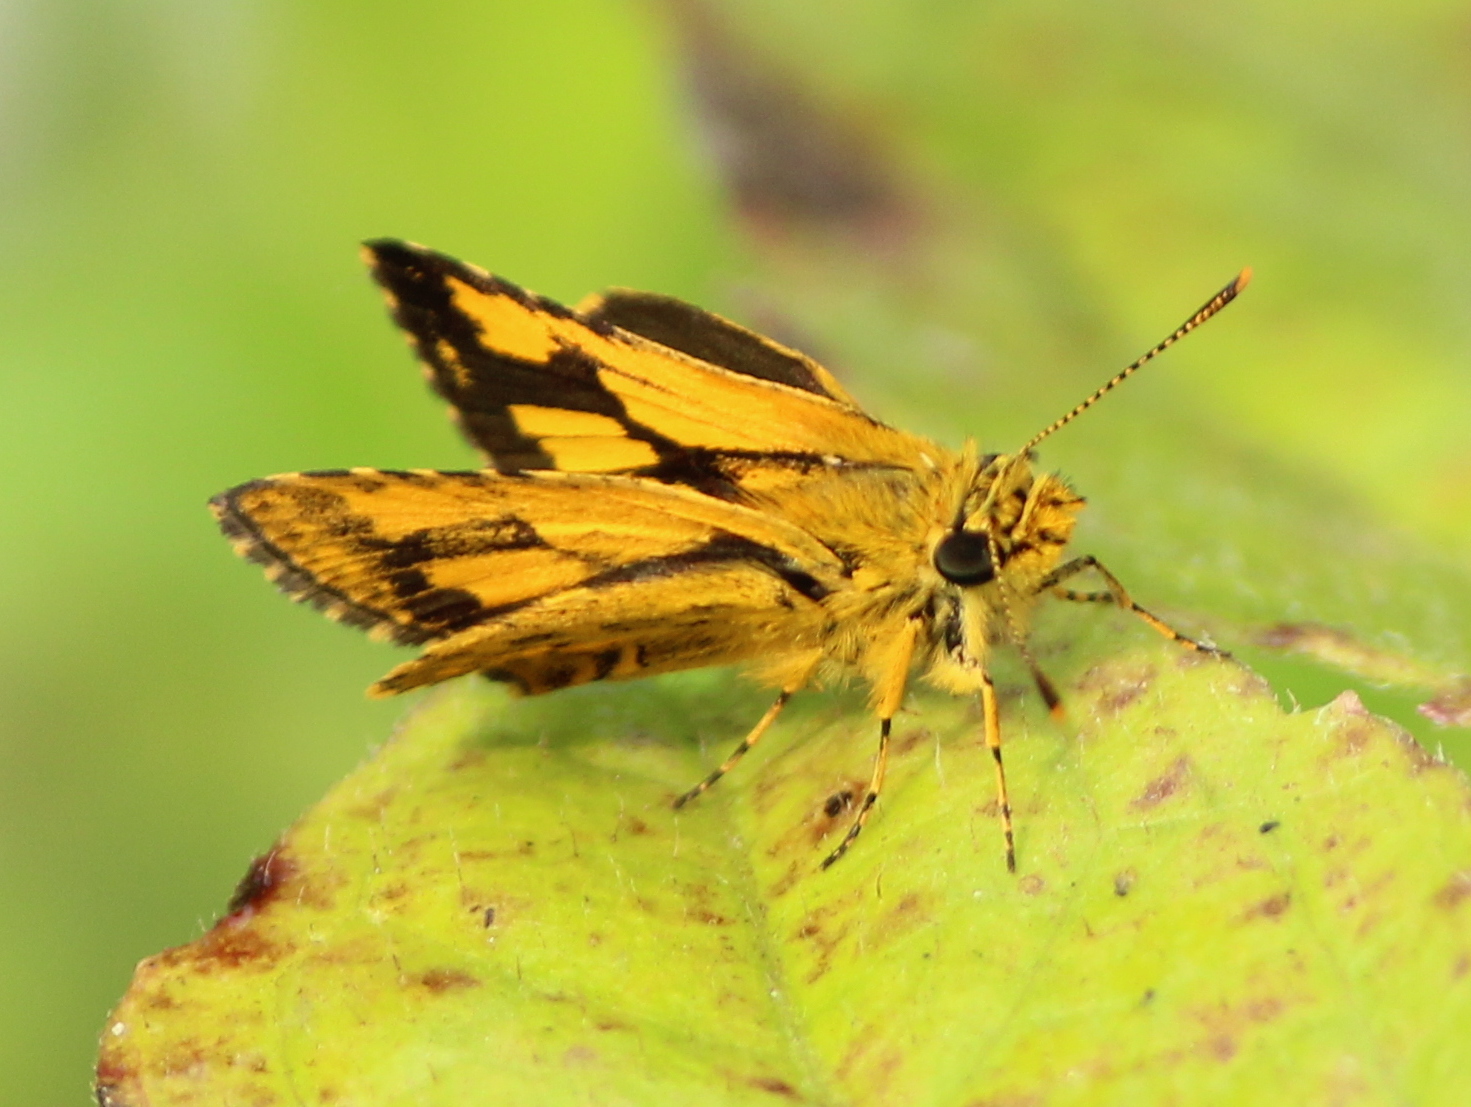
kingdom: Animalia
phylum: Arthropoda
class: Insecta
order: Lepidoptera
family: Hesperiidae
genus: Ampittia
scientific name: Ampittia dioscorides
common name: Common bush hopper
